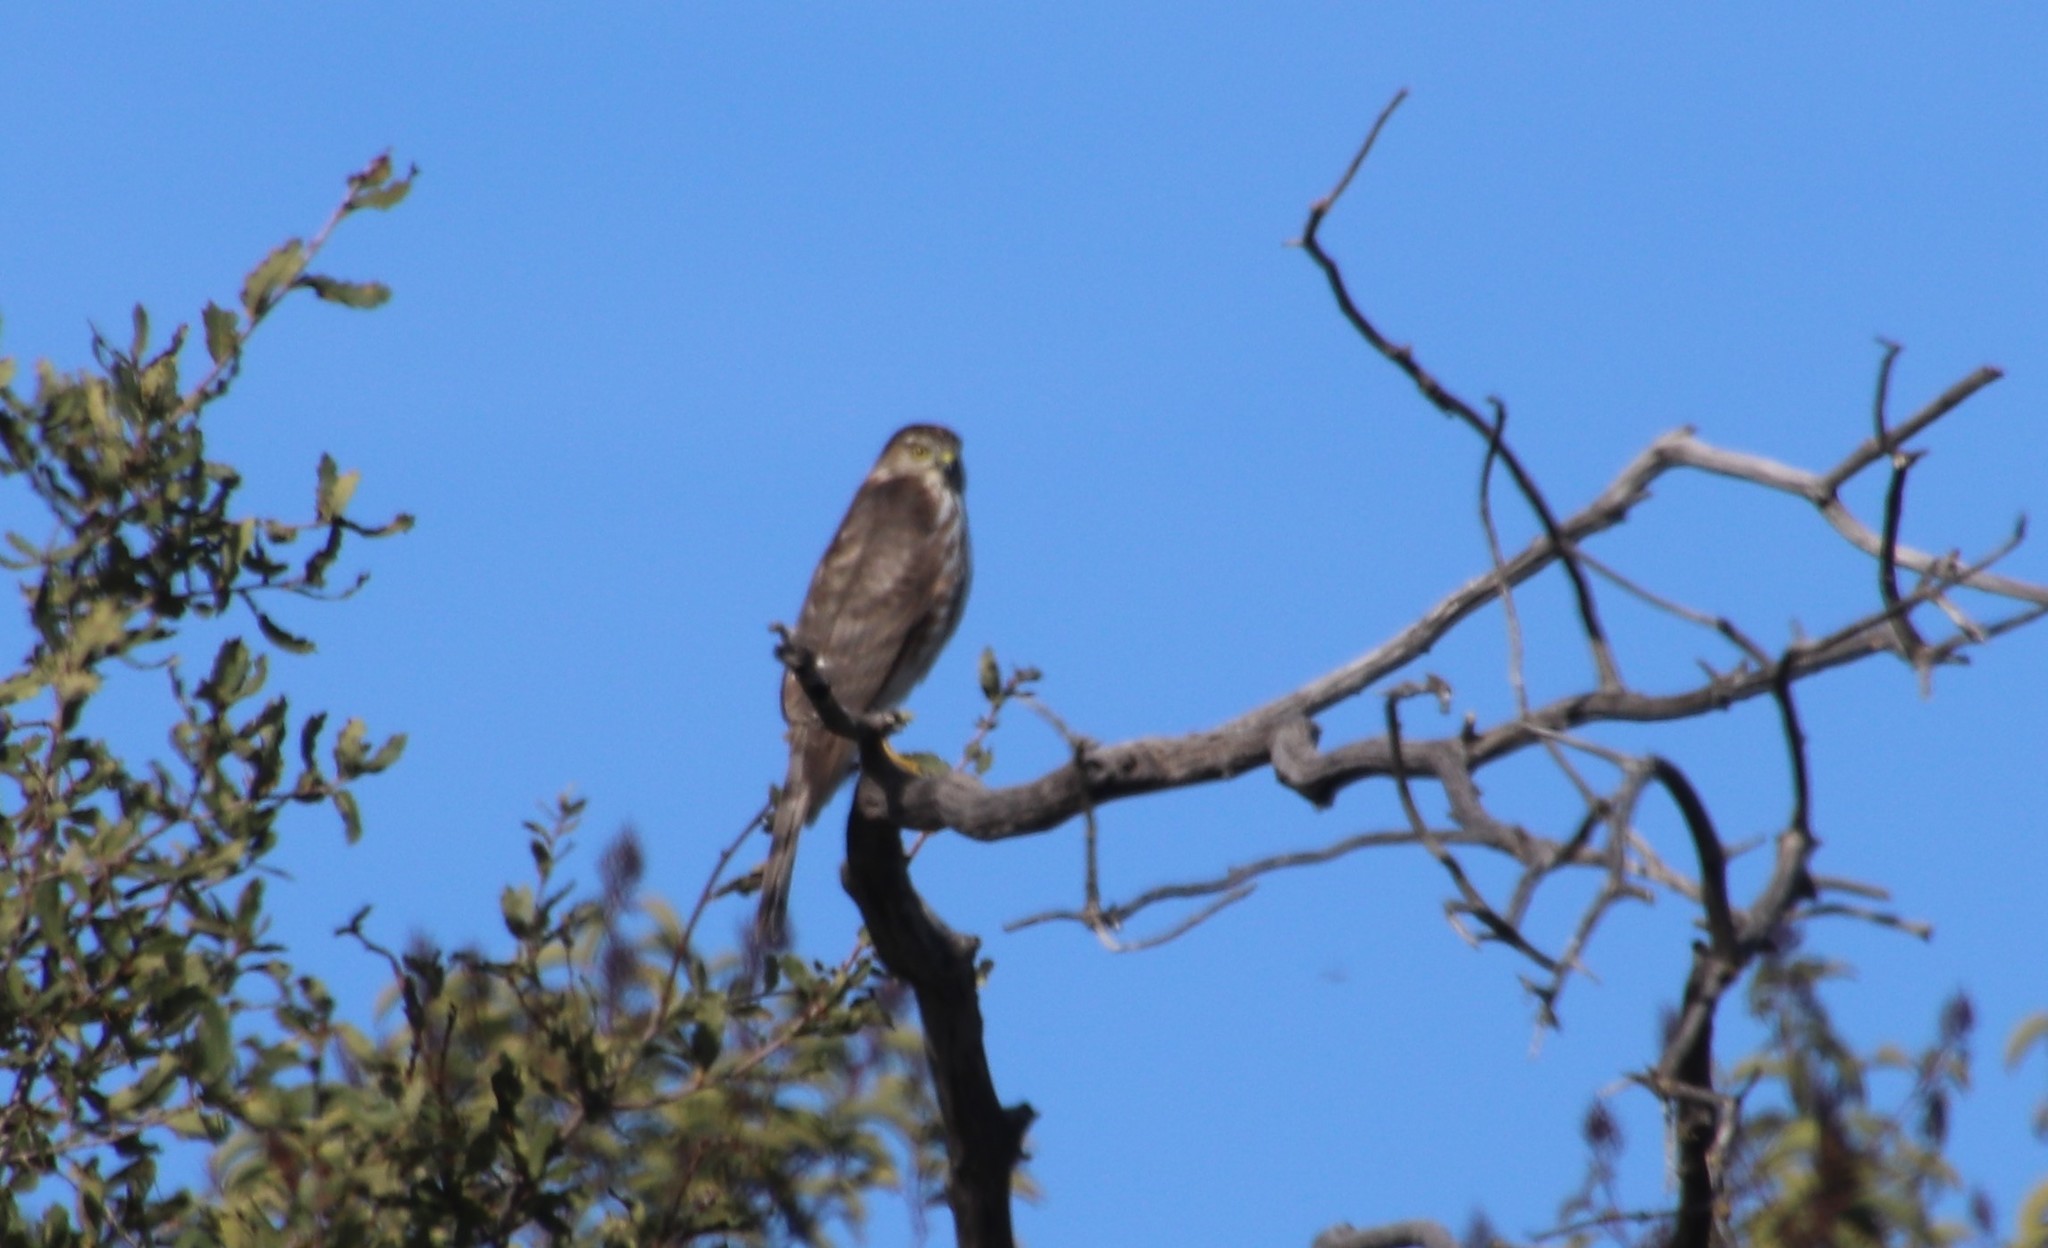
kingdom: Animalia
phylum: Chordata
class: Aves
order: Accipitriformes
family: Accipitridae
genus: Accipiter
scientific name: Accipiter striatus
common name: Sharp-shinned hawk
